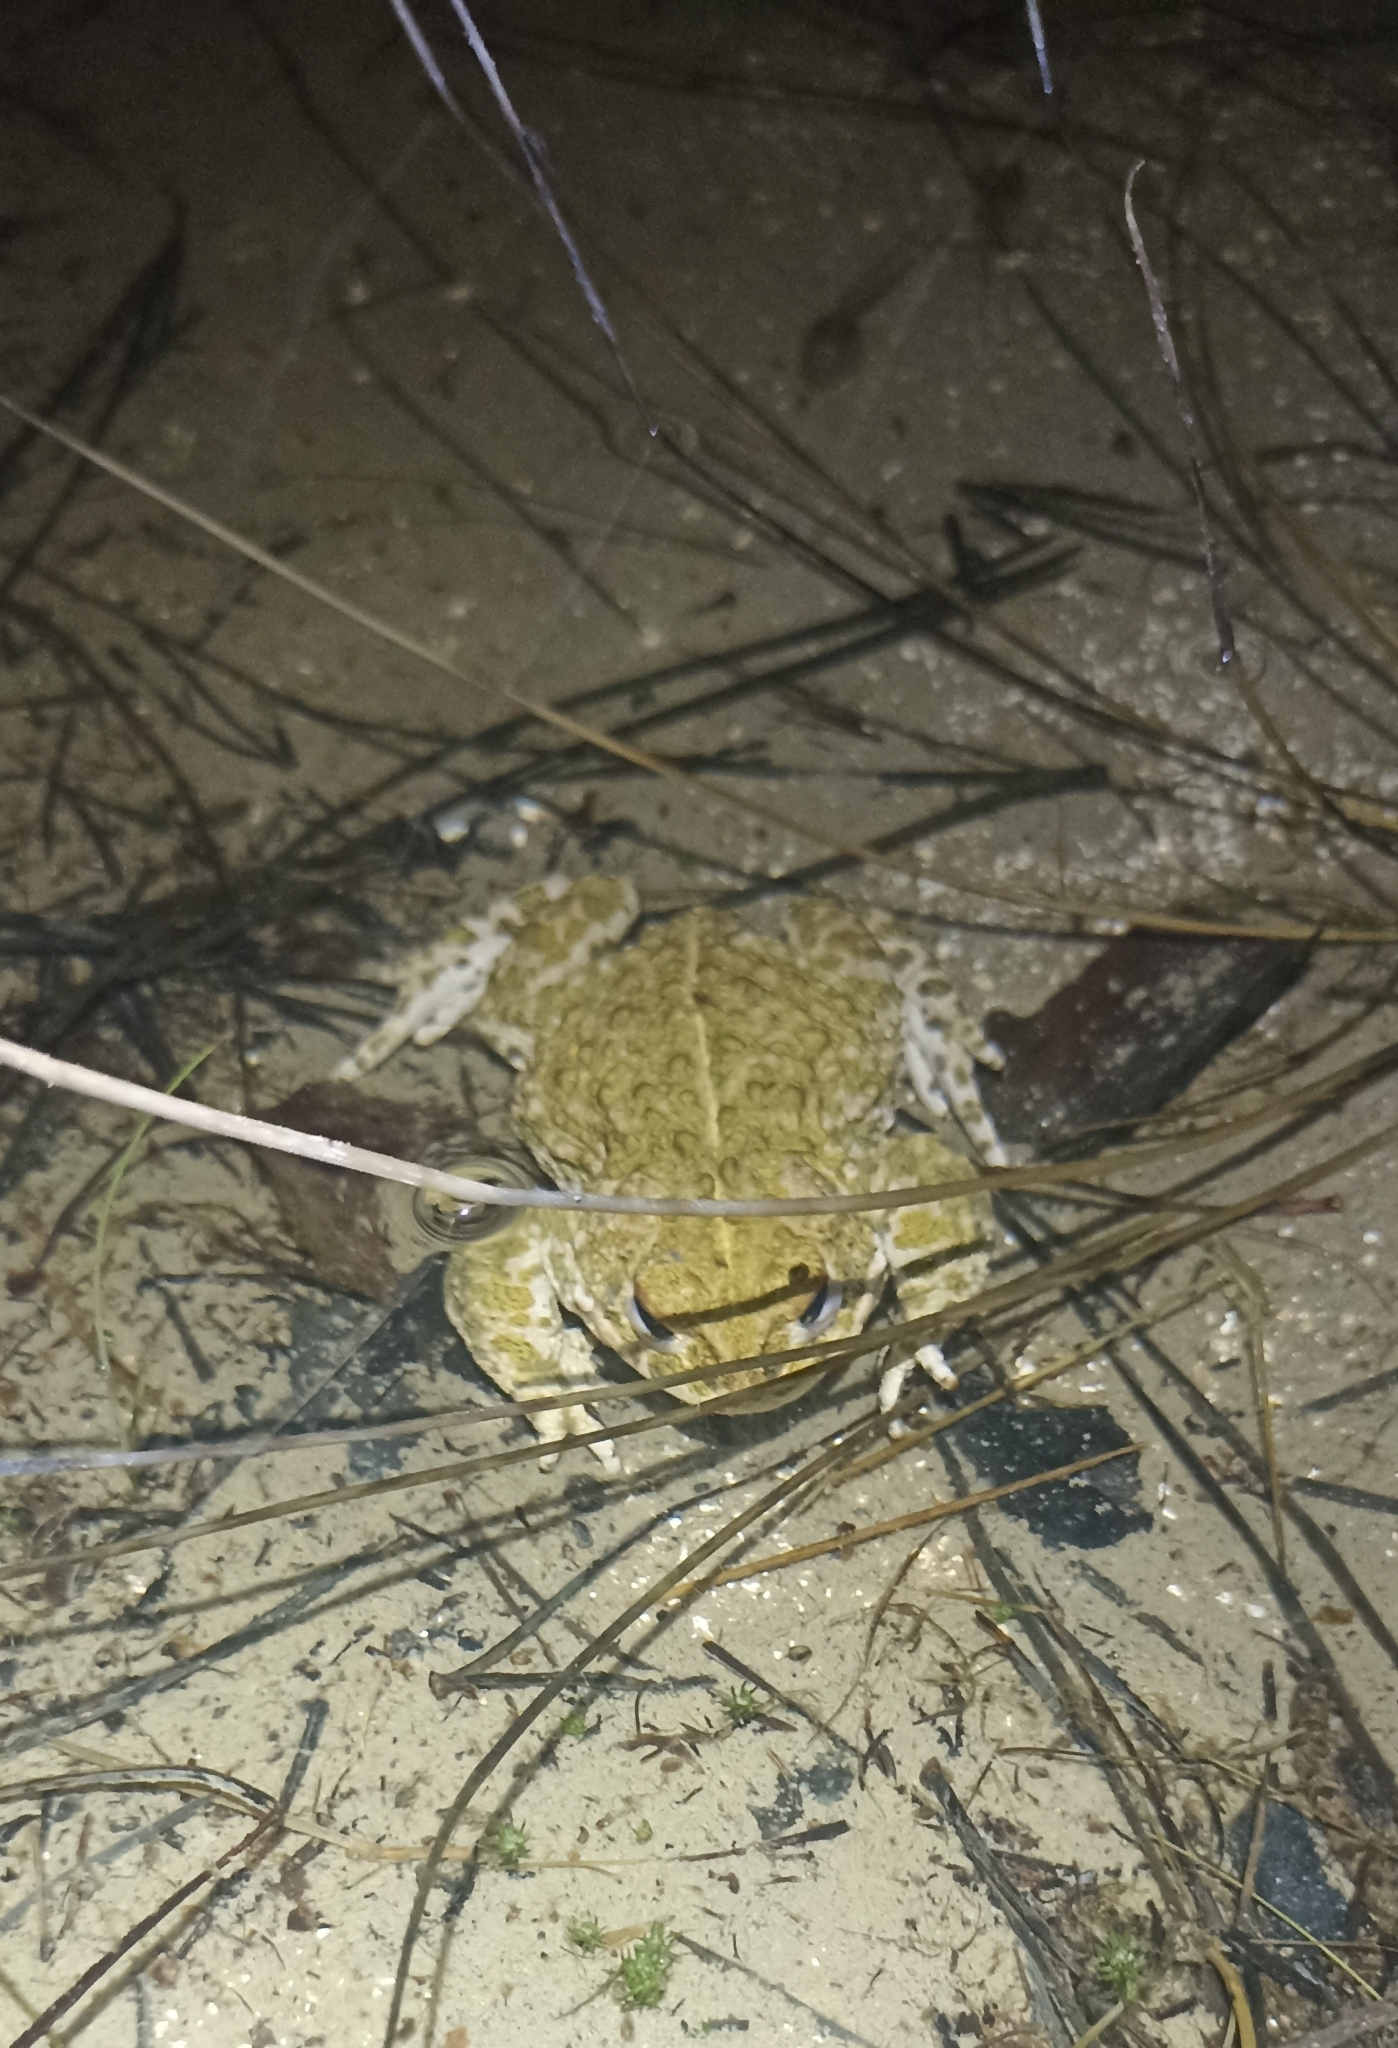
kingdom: Animalia
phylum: Chordata
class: Amphibia
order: Anura
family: Bufonidae
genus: Epidalea
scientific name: Epidalea calamita
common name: Natterjack toad
